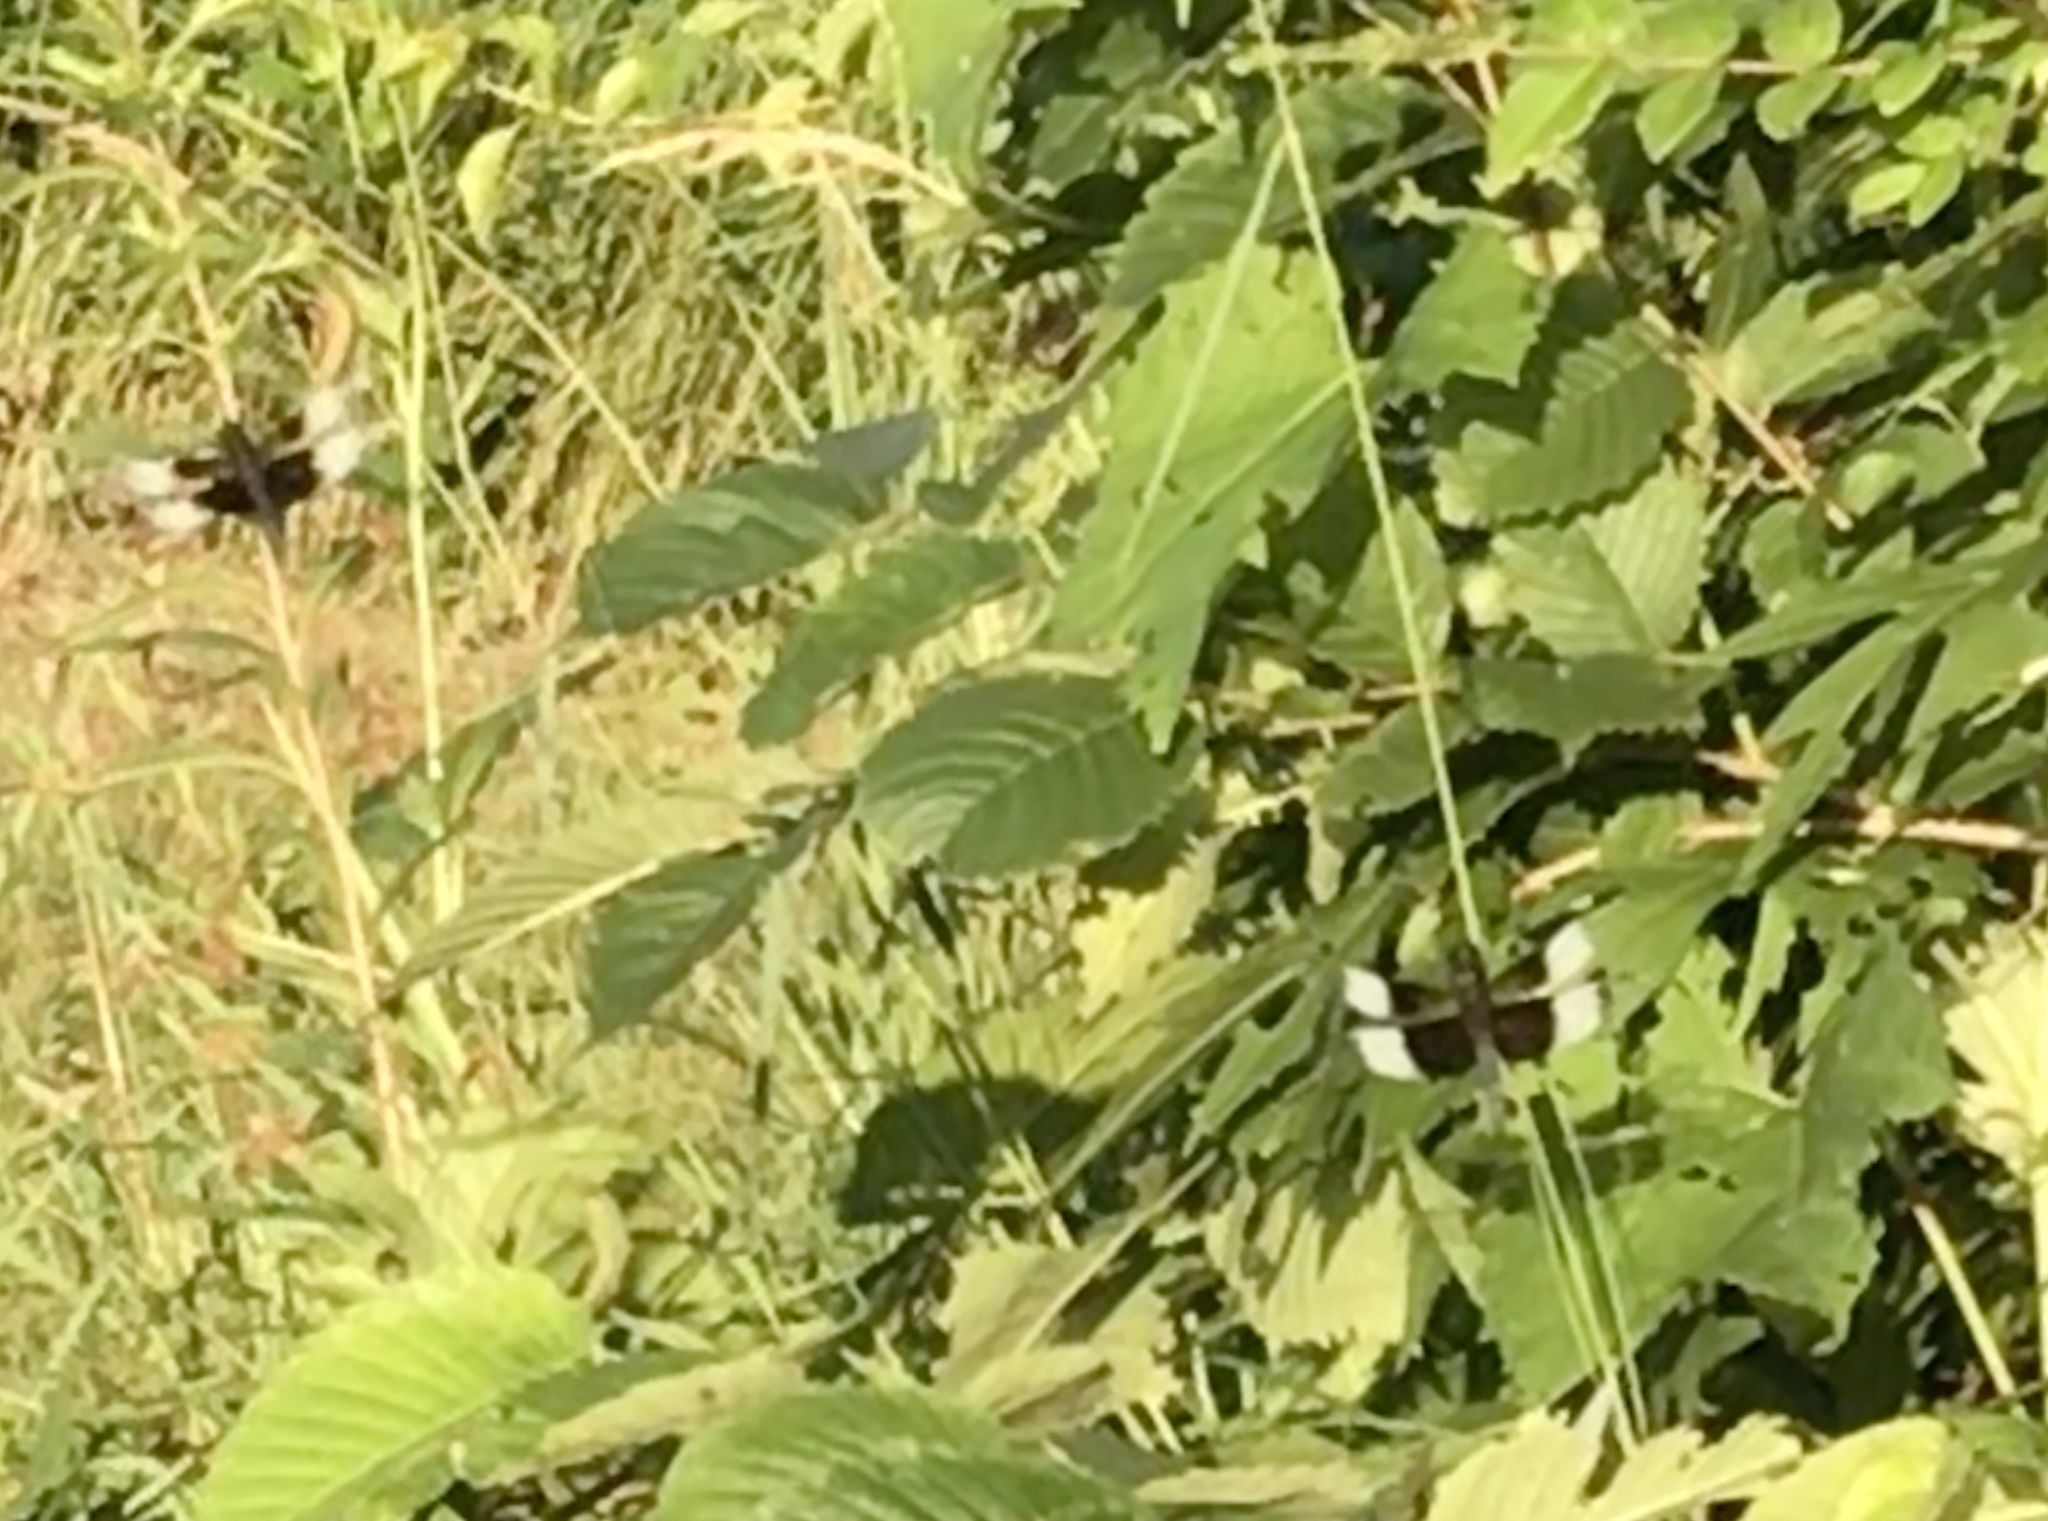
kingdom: Animalia
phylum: Arthropoda
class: Insecta
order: Odonata
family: Libellulidae
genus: Libellula
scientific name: Libellula luctuosa
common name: Widow skimmer
